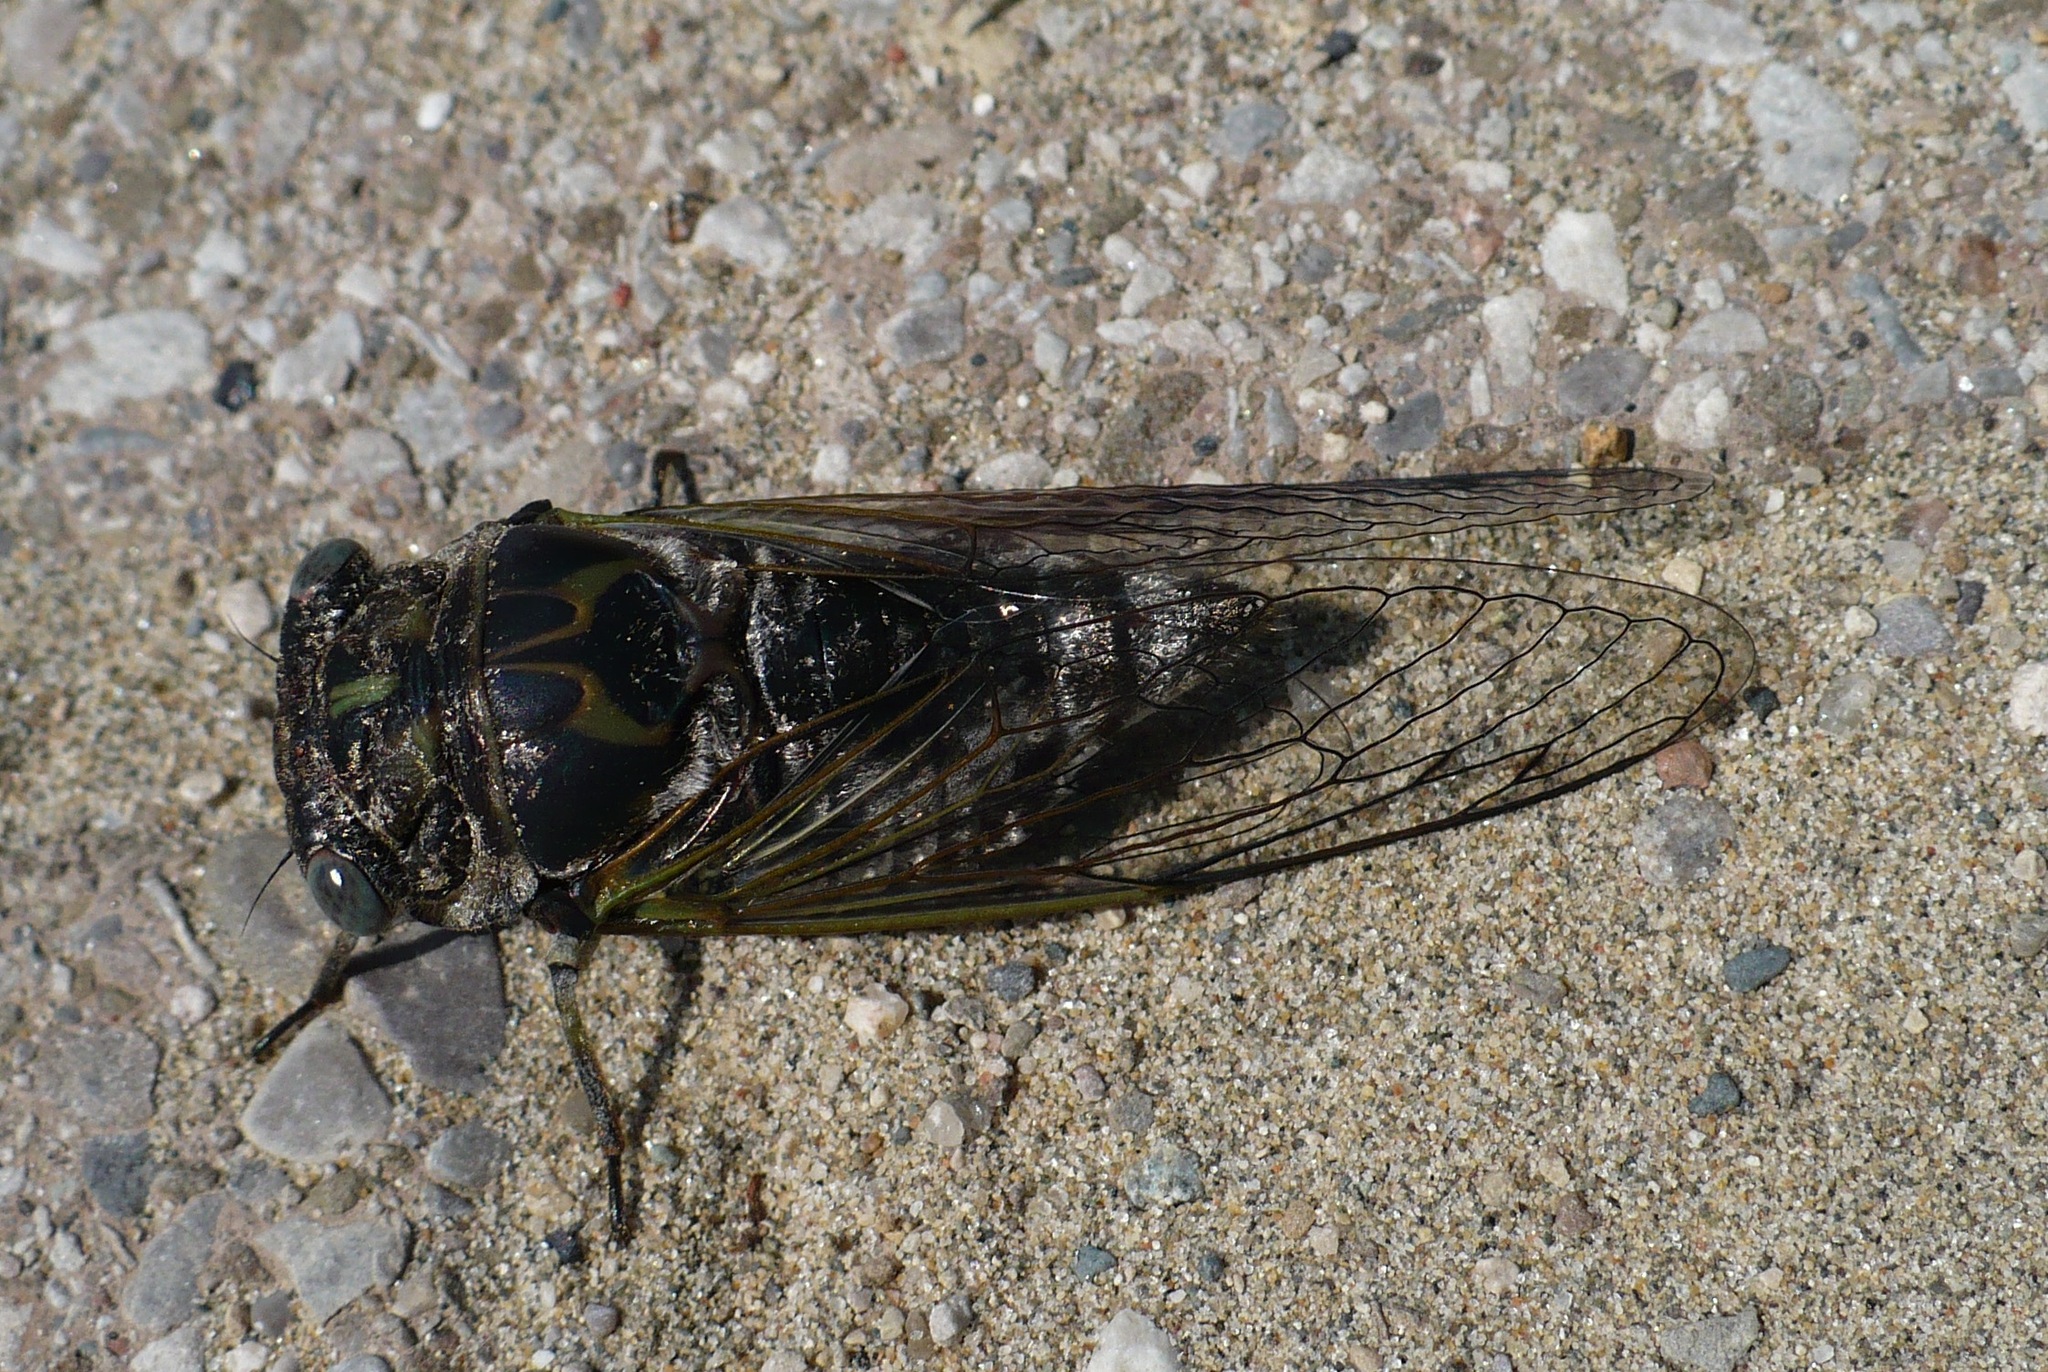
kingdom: Animalia
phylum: Arthropoda
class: Insecta
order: Hemiptera
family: Cicadidae
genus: Neotibicen
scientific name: Neotibicen canicularis
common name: God-day cicada
